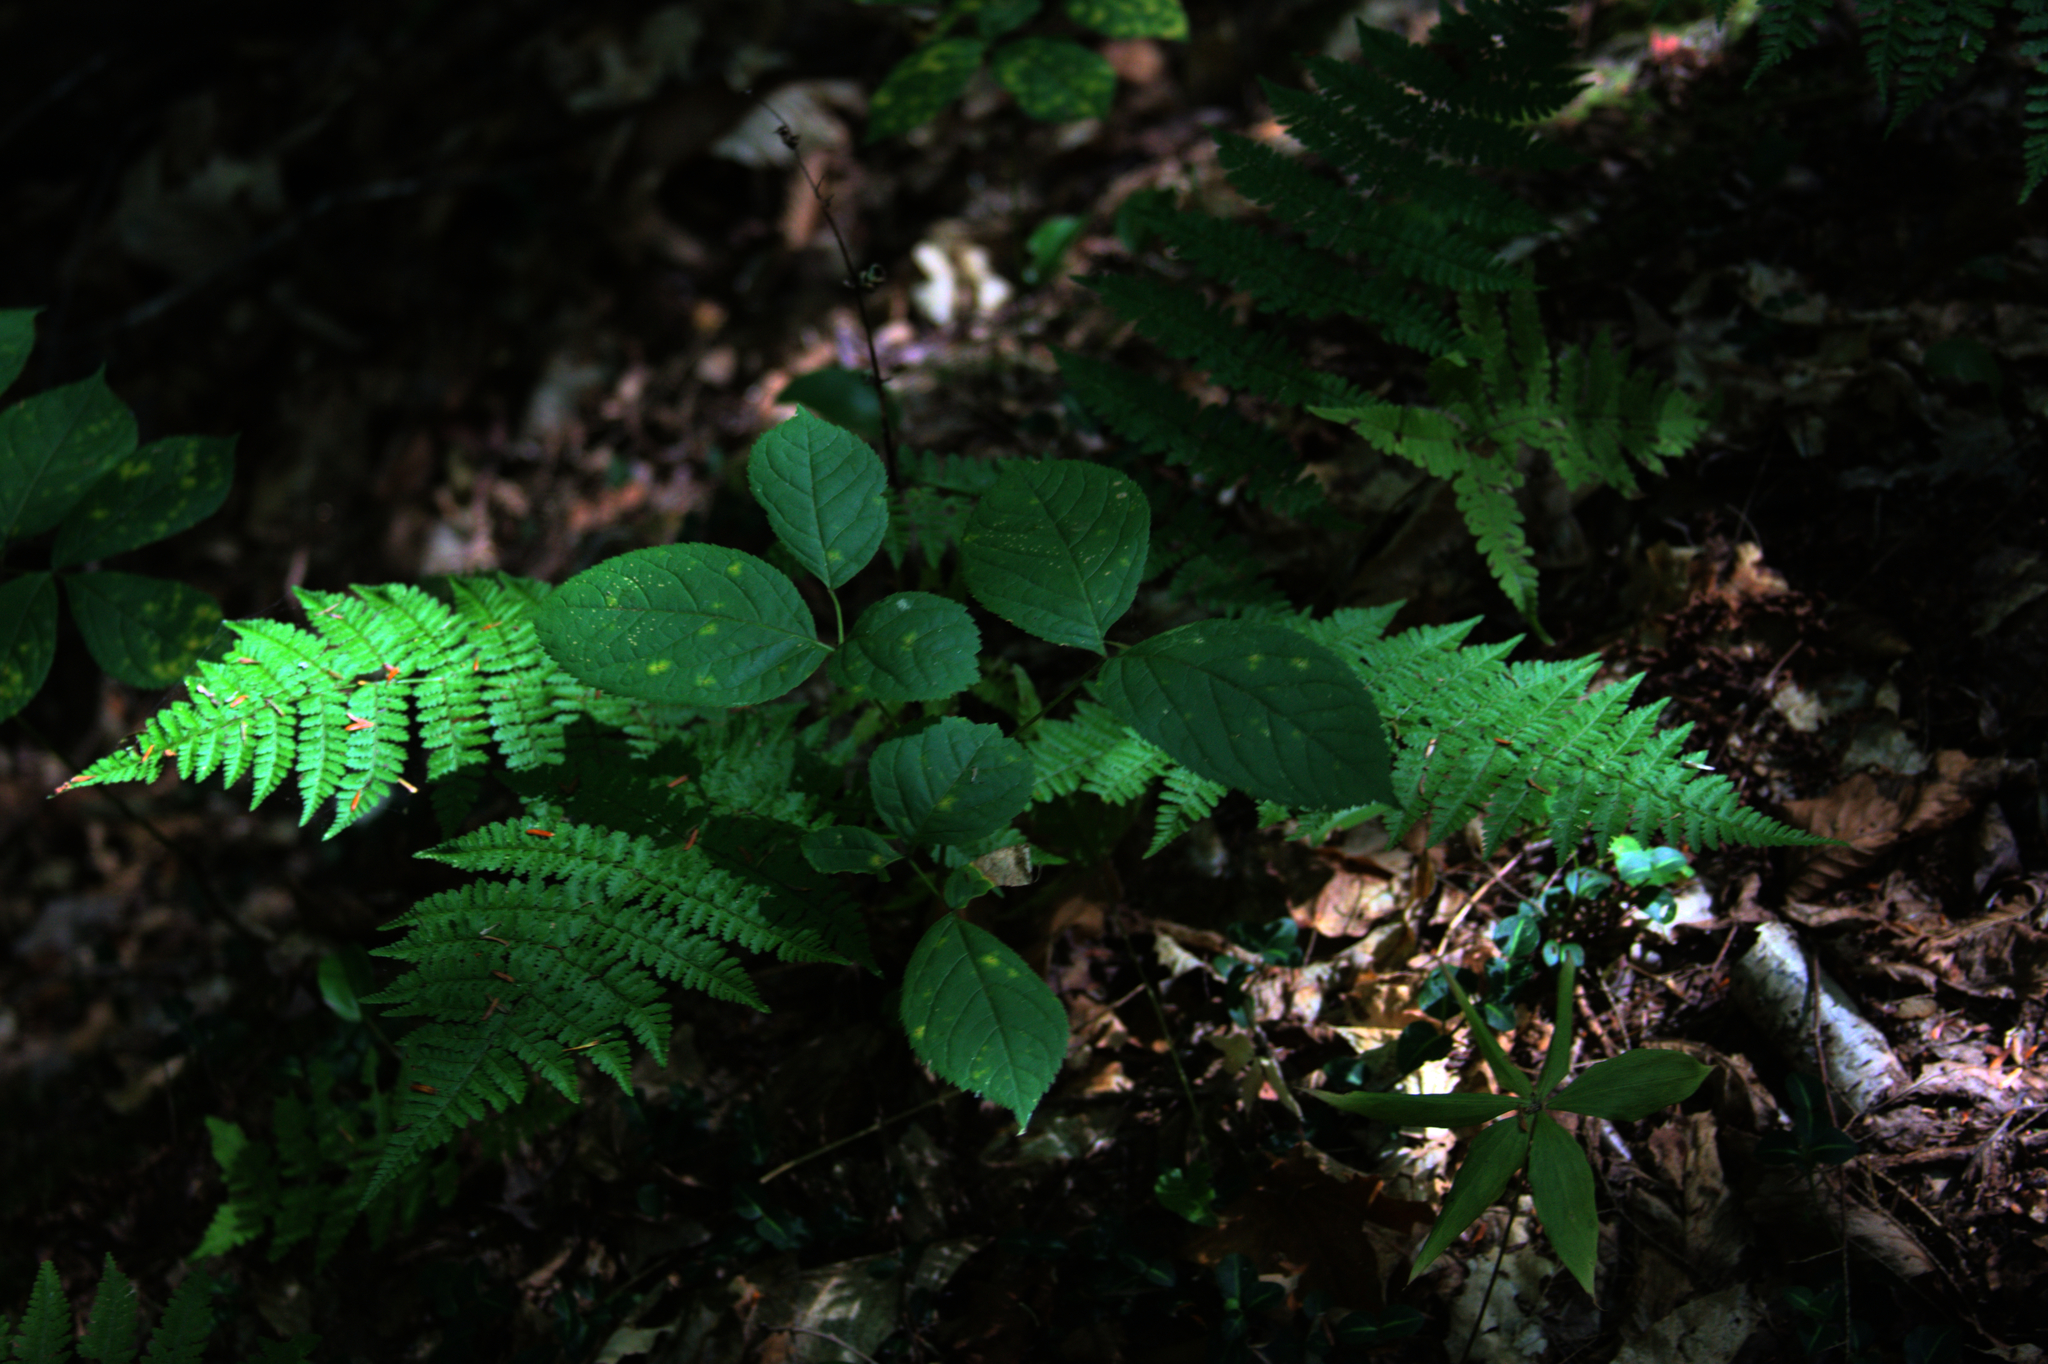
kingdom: Plantae
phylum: Tracheophyta
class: Magnoliopsida
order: Apiales
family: Araliaceae
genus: Aralia
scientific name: Aralia nudicaulis
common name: Wild sarsaparilla
